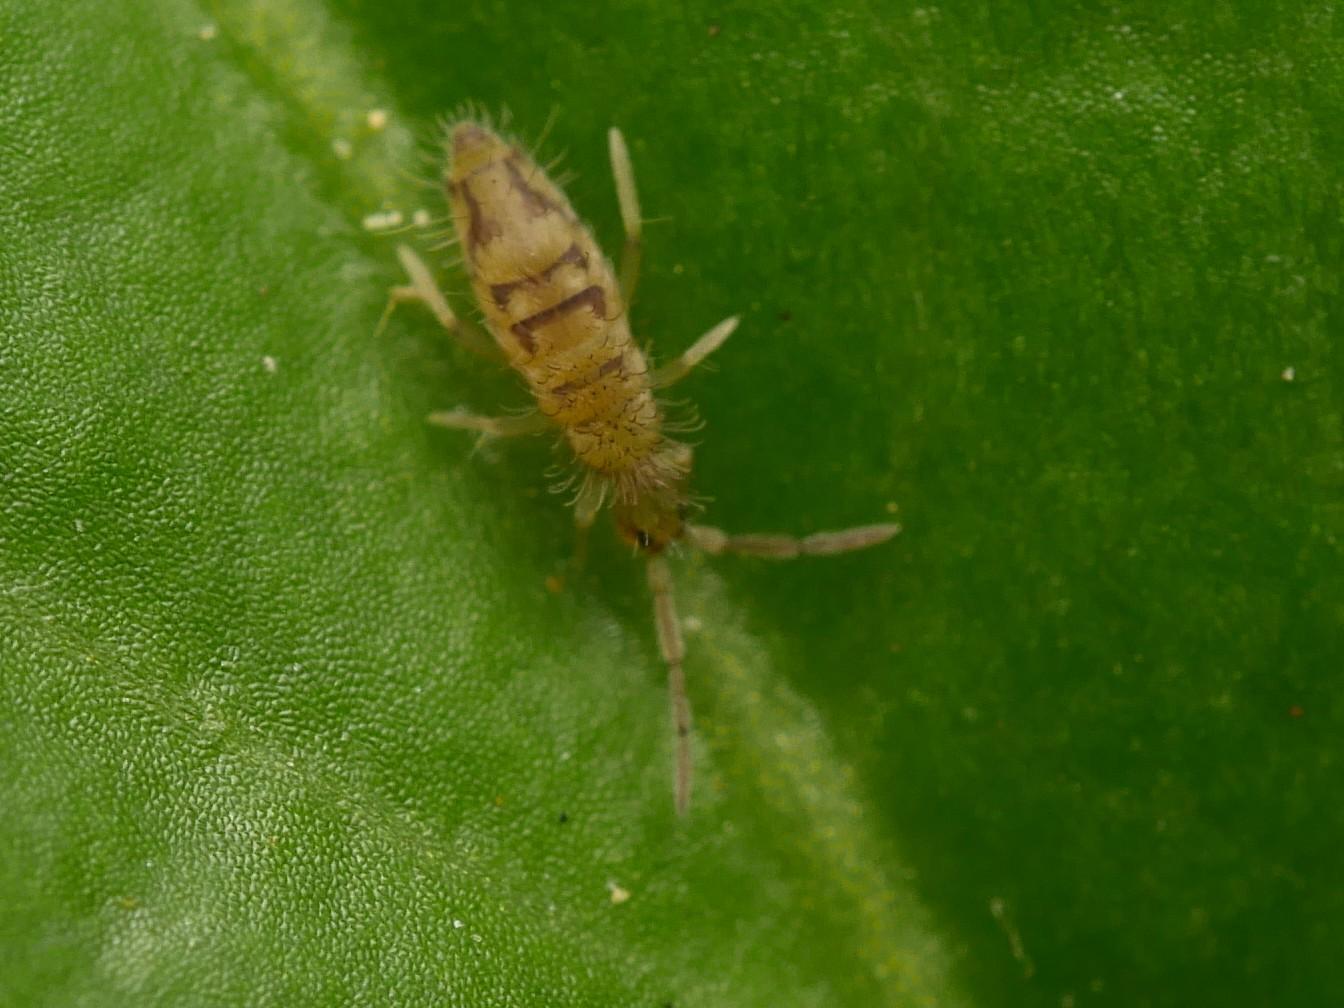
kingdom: Animalia
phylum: Arthropoda
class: Collembola
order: Entomobryomorpha
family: Entomobryidae
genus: Entomobrya
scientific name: Entomobrya nivalis
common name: Cosmopolitan springtail
